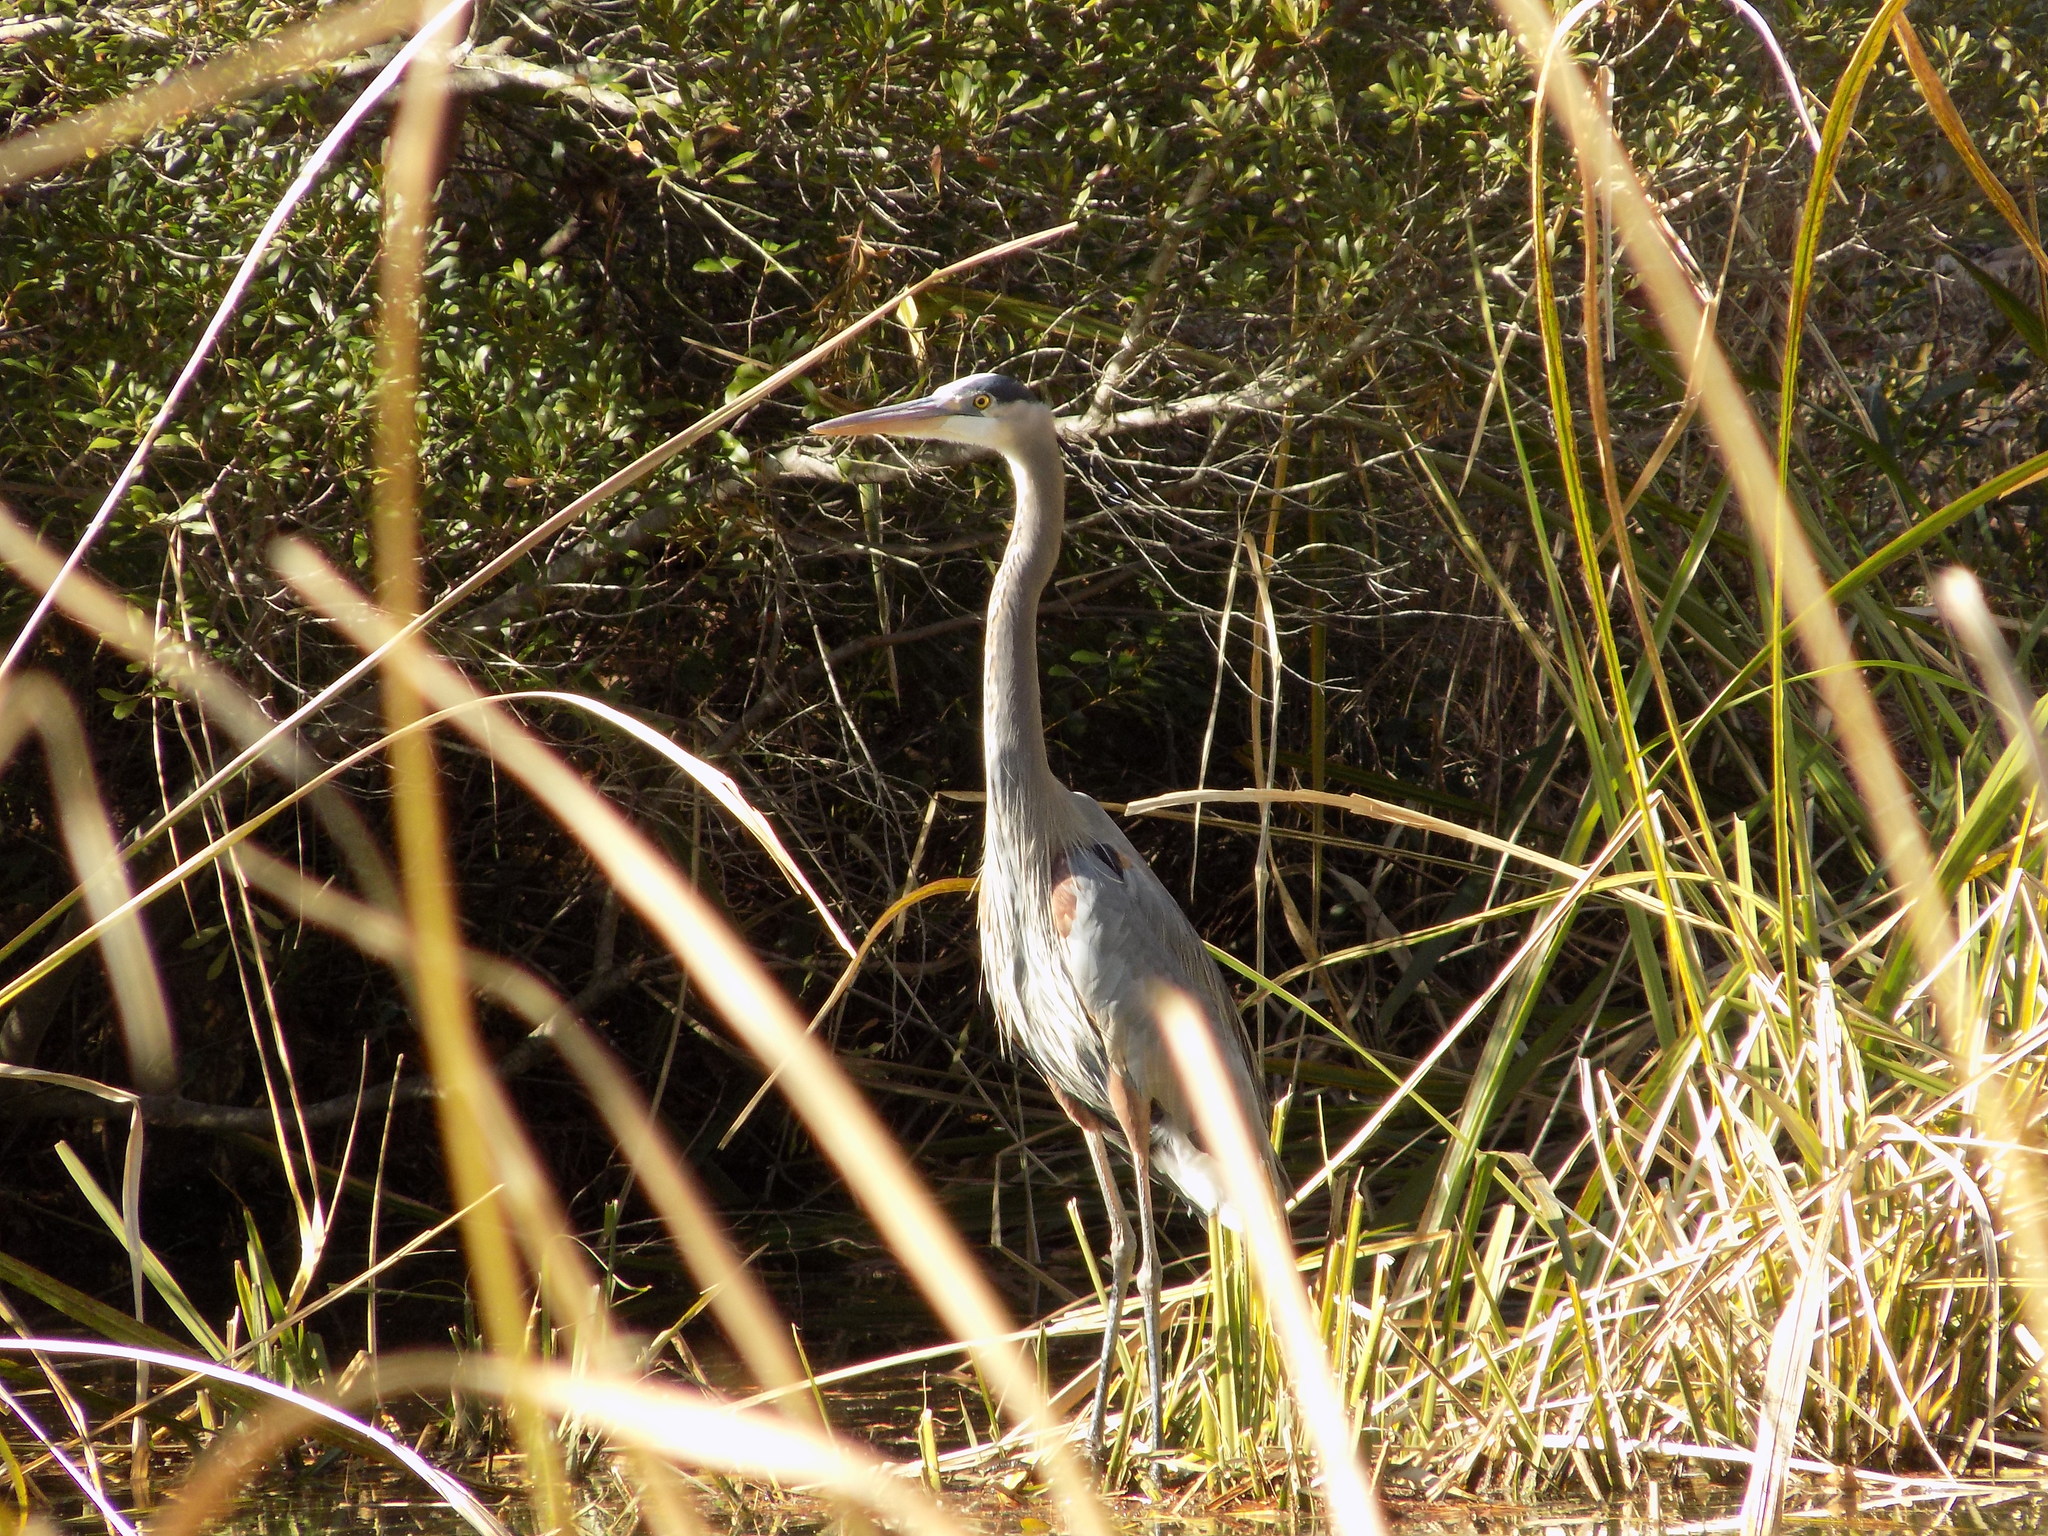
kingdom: Animalia
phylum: Chordata
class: Aves
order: Pelecaniformes
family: Ardeidae
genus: Ardea
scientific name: Ardea herodias
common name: Great blue heron
